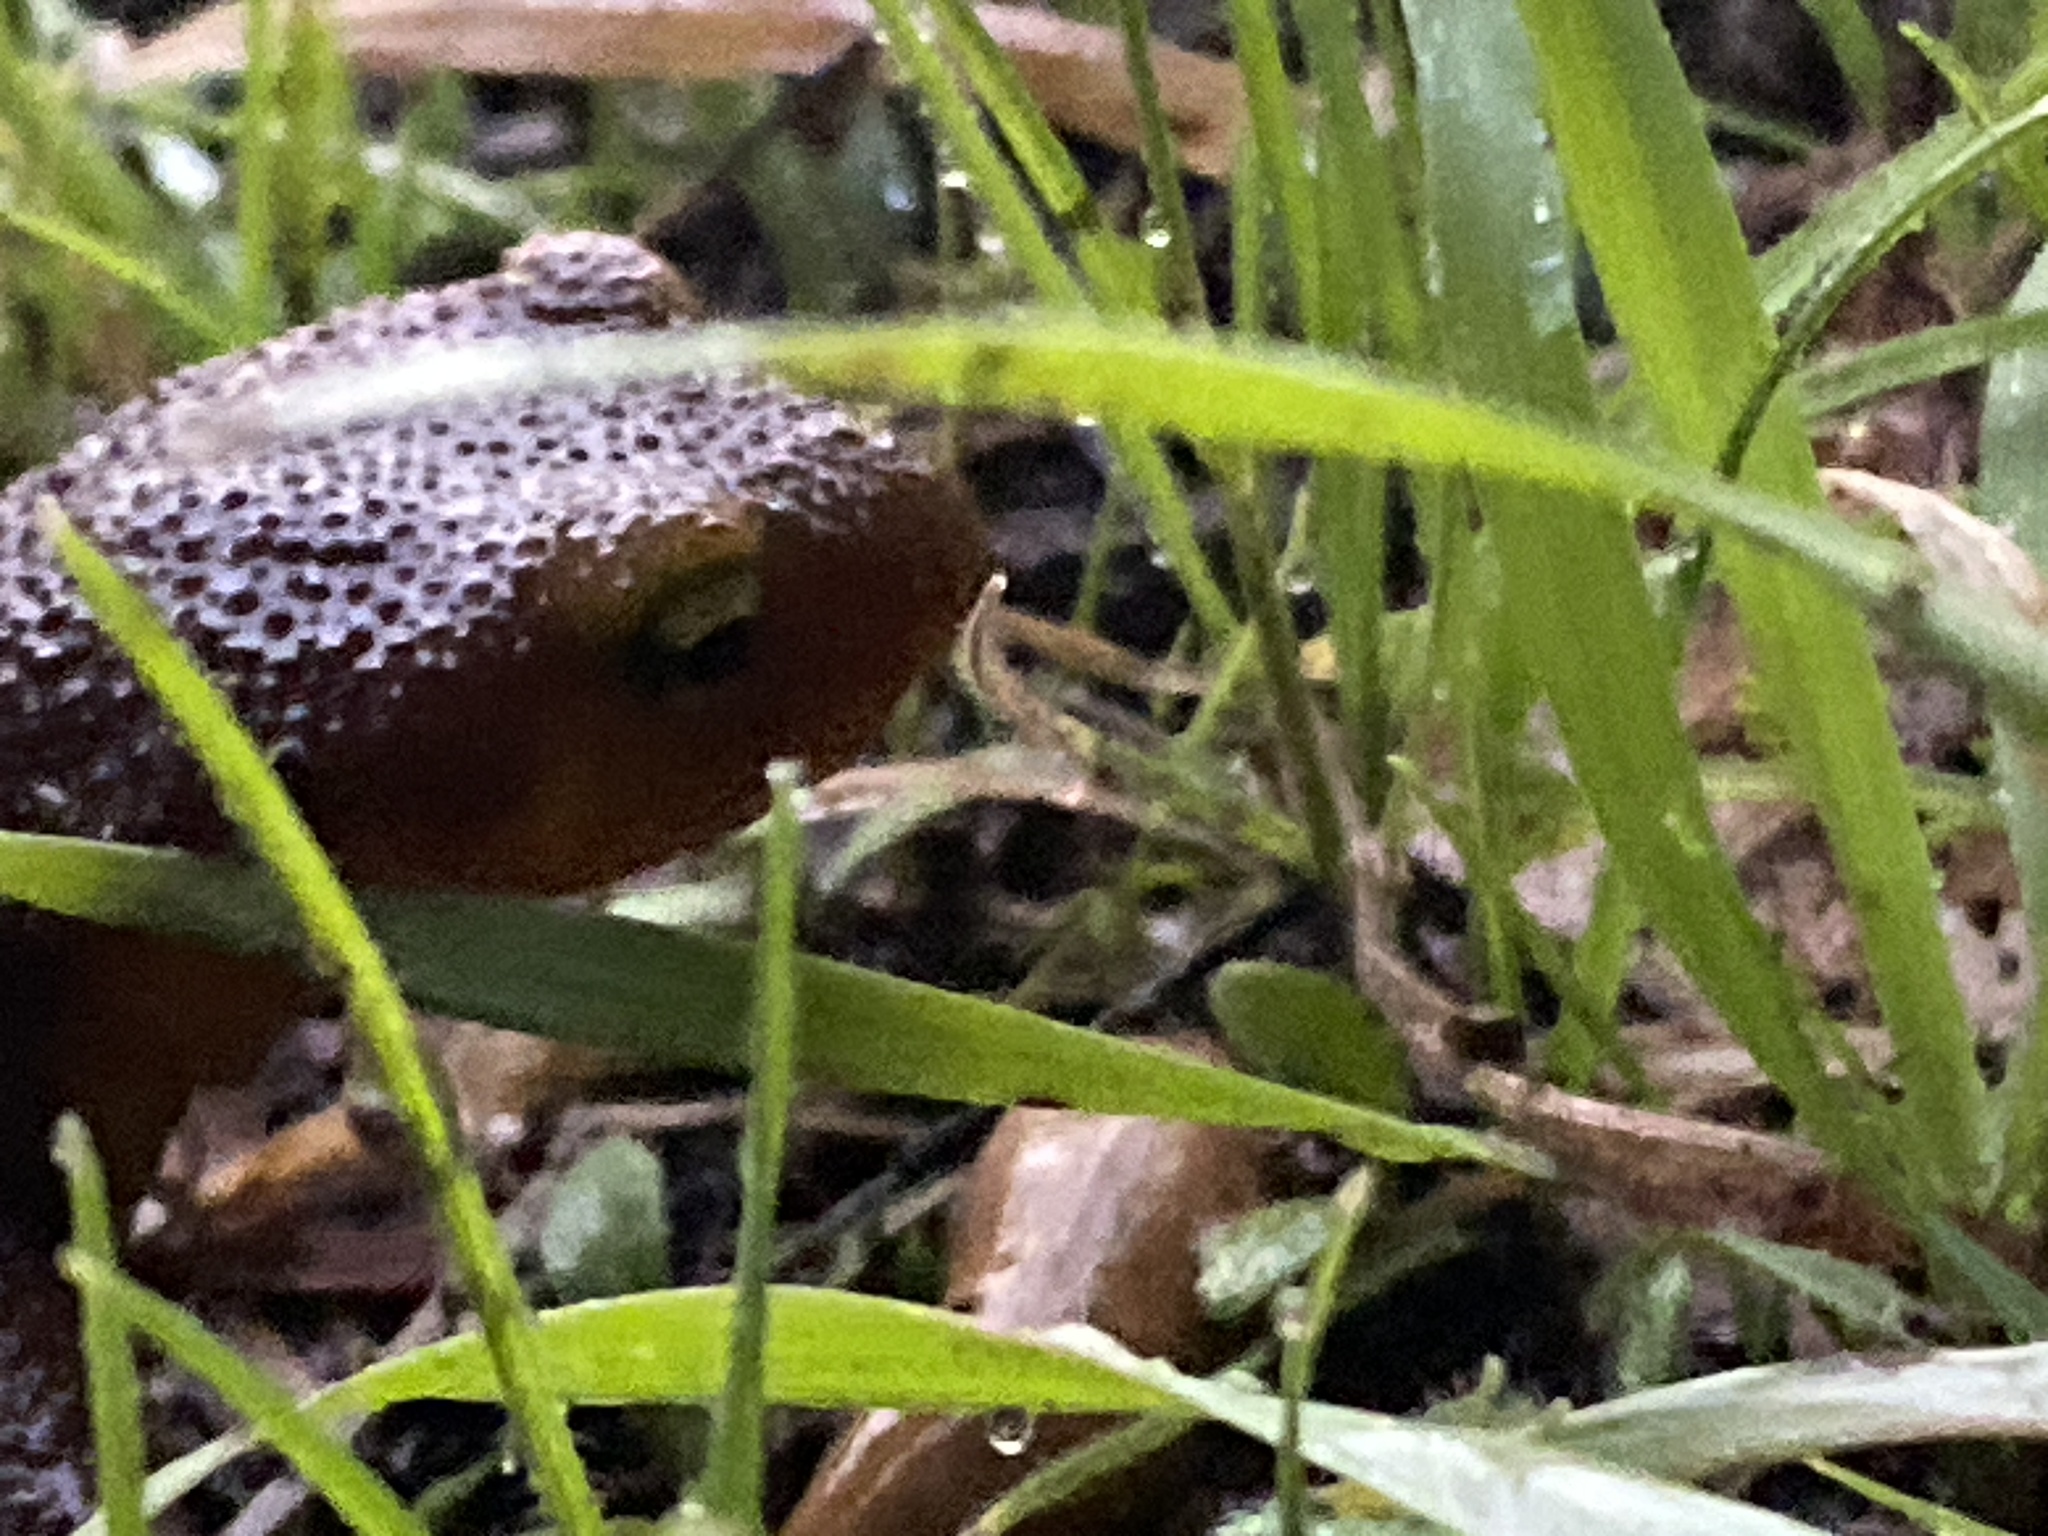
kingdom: Animalia
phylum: Chordata
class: Amphibia
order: Caudata
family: Salamandridae
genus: Taricha
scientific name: Taricha torosa
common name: California newt
